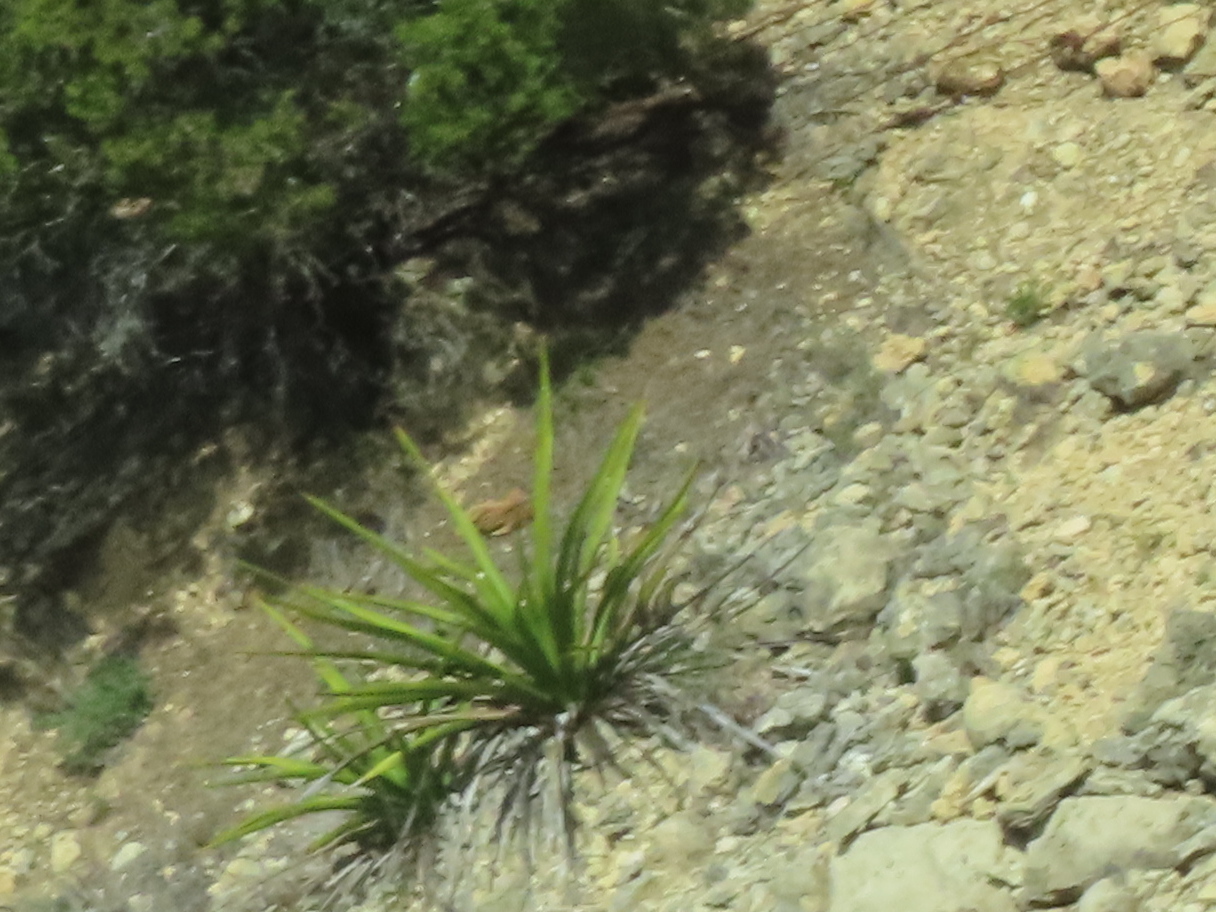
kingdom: Plantae
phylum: Tracheophyta
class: Liliopsida
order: Asparagales
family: Asparagaceae
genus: Yucca
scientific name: Yucca rupicola
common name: Twisted-leaf spanish-dagger
